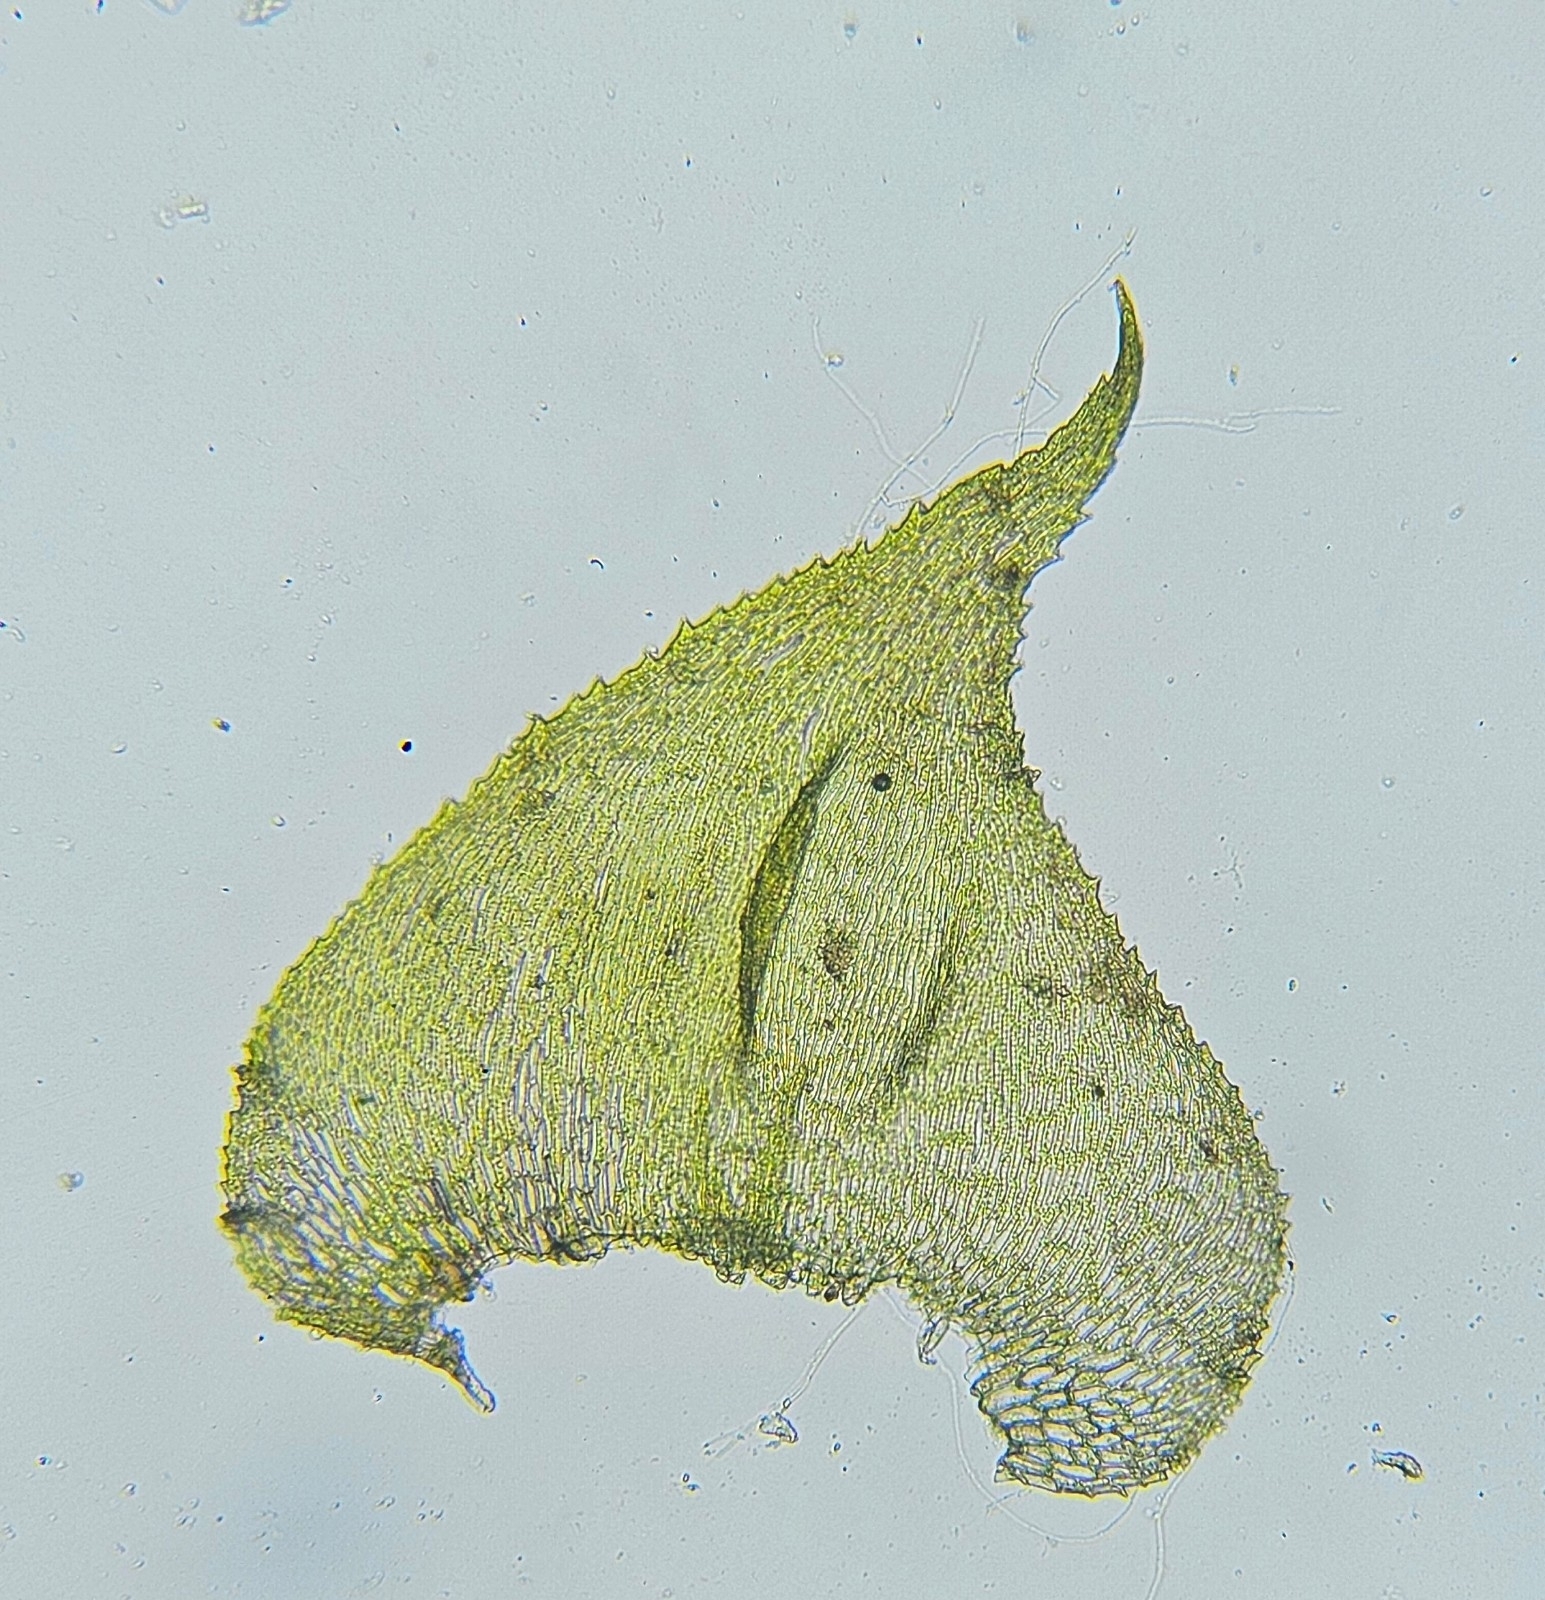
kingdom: Plantae
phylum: Bryophyta
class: Bryopsida
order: Hypnales
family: Myuriaceae
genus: Hyocomium
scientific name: Hyocomium armoricum
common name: Flagellate feather-moss
